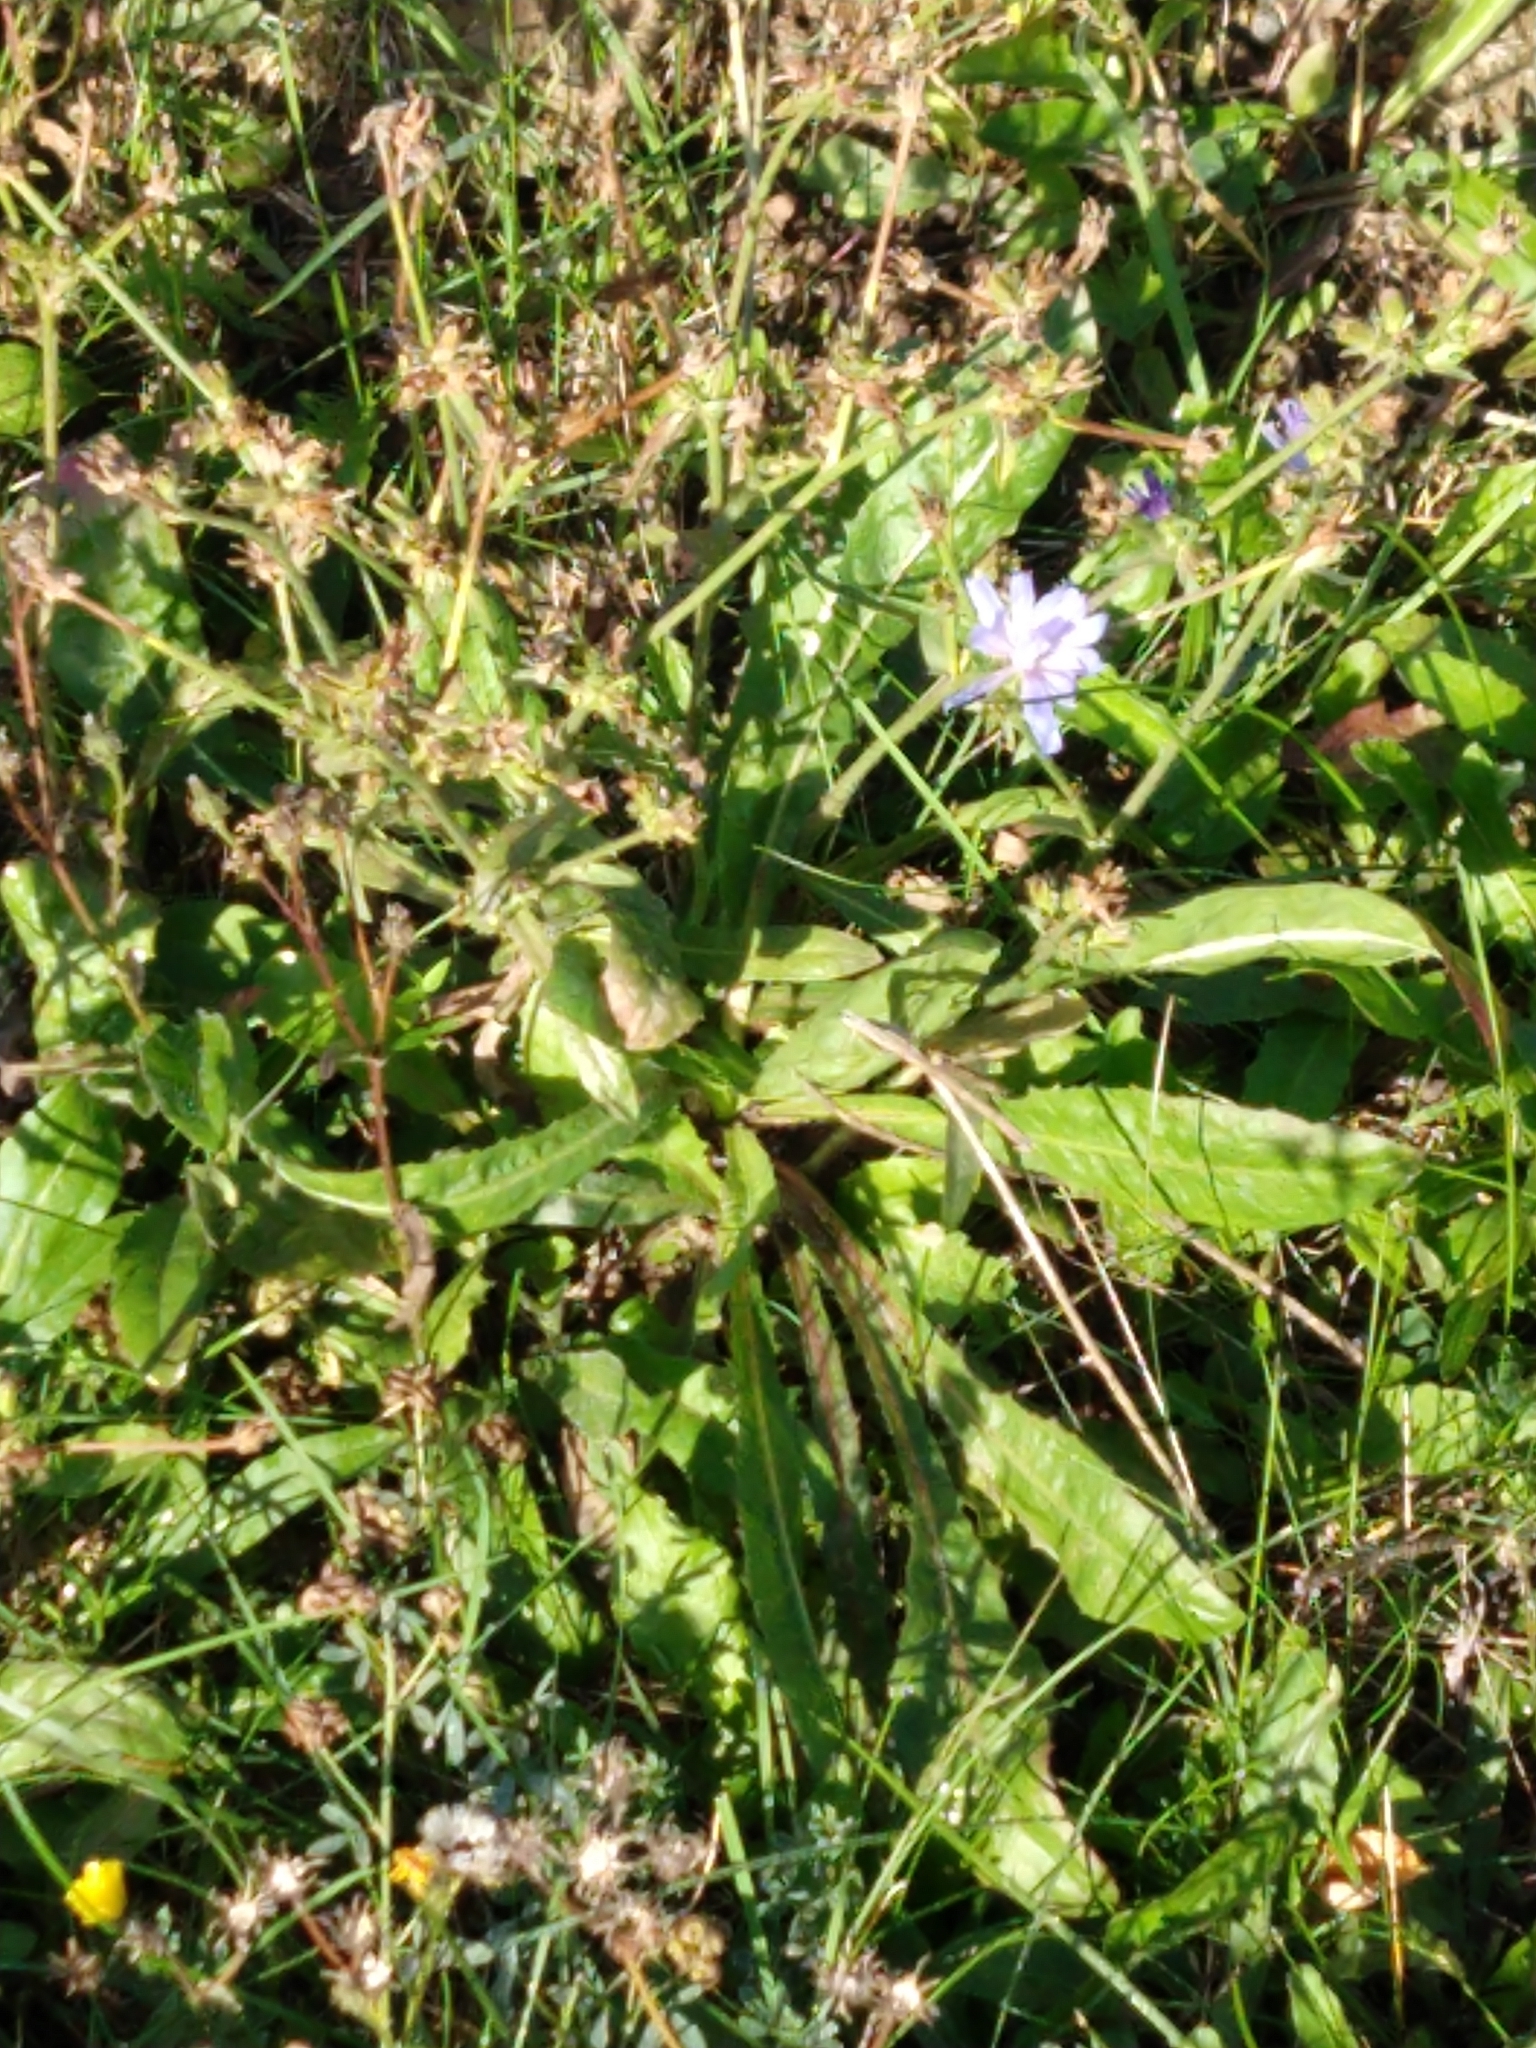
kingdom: Plantae
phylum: Tracheophyta
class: Magnoliopsida
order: Asterales
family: Asteraceae
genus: Cichorium
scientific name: Cichorium intybus
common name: Chicory
